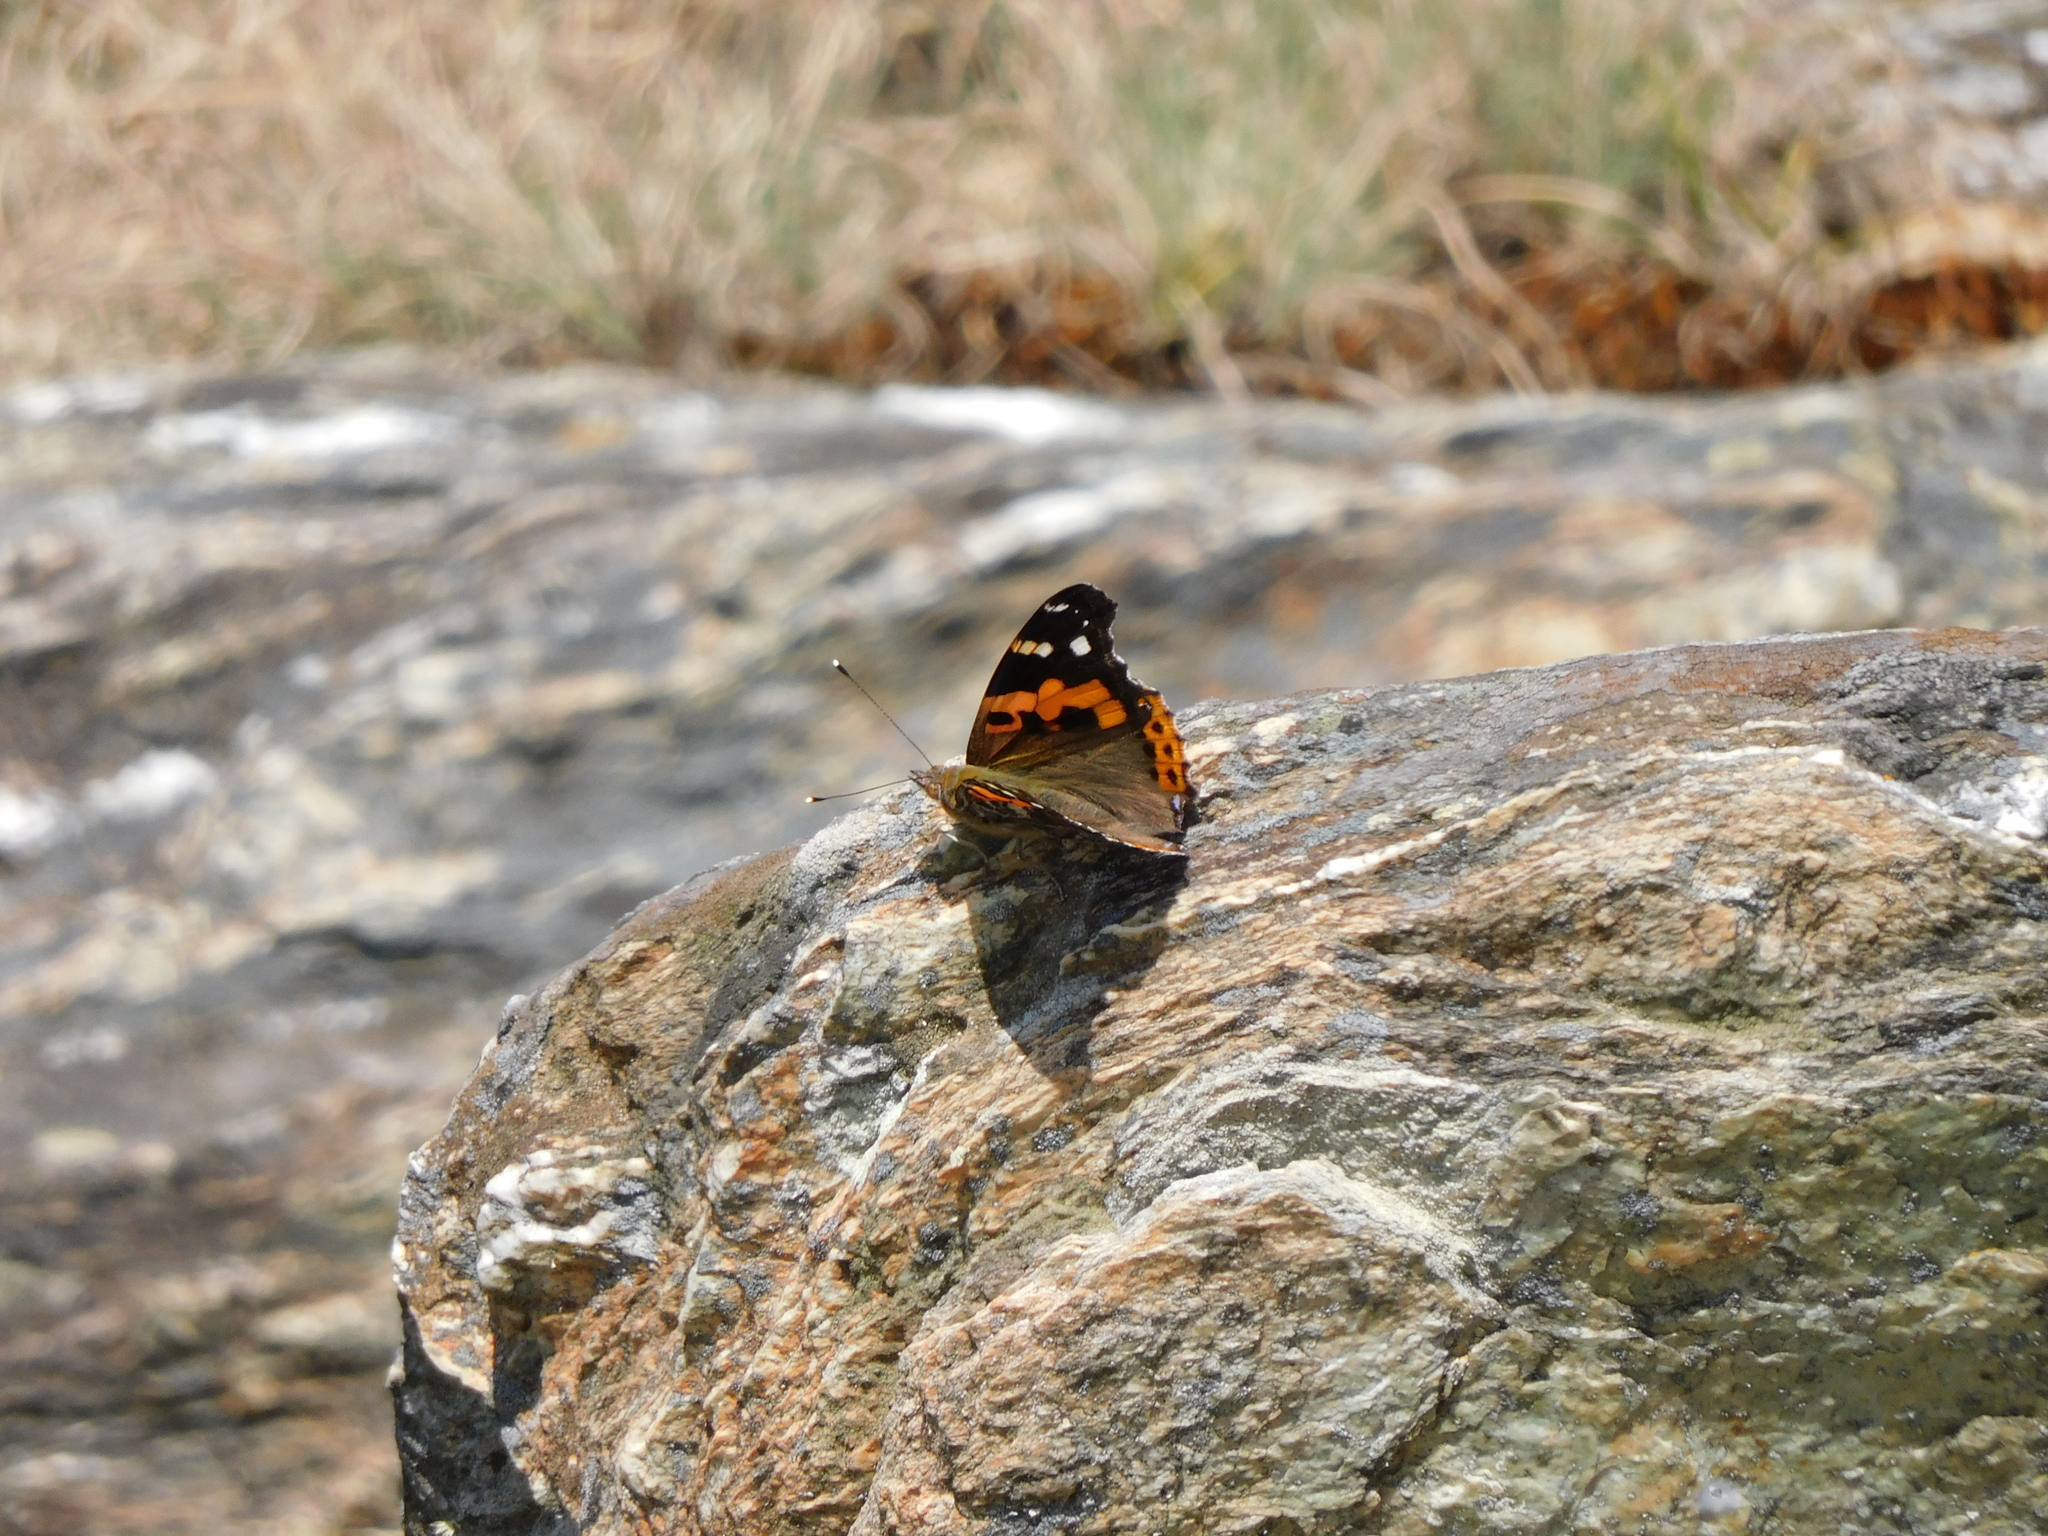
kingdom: Animalia
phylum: Arthropoda
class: Insecta
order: Lepidoptera
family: Nymphalidae
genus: Vanessa
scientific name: Vanessa indica
